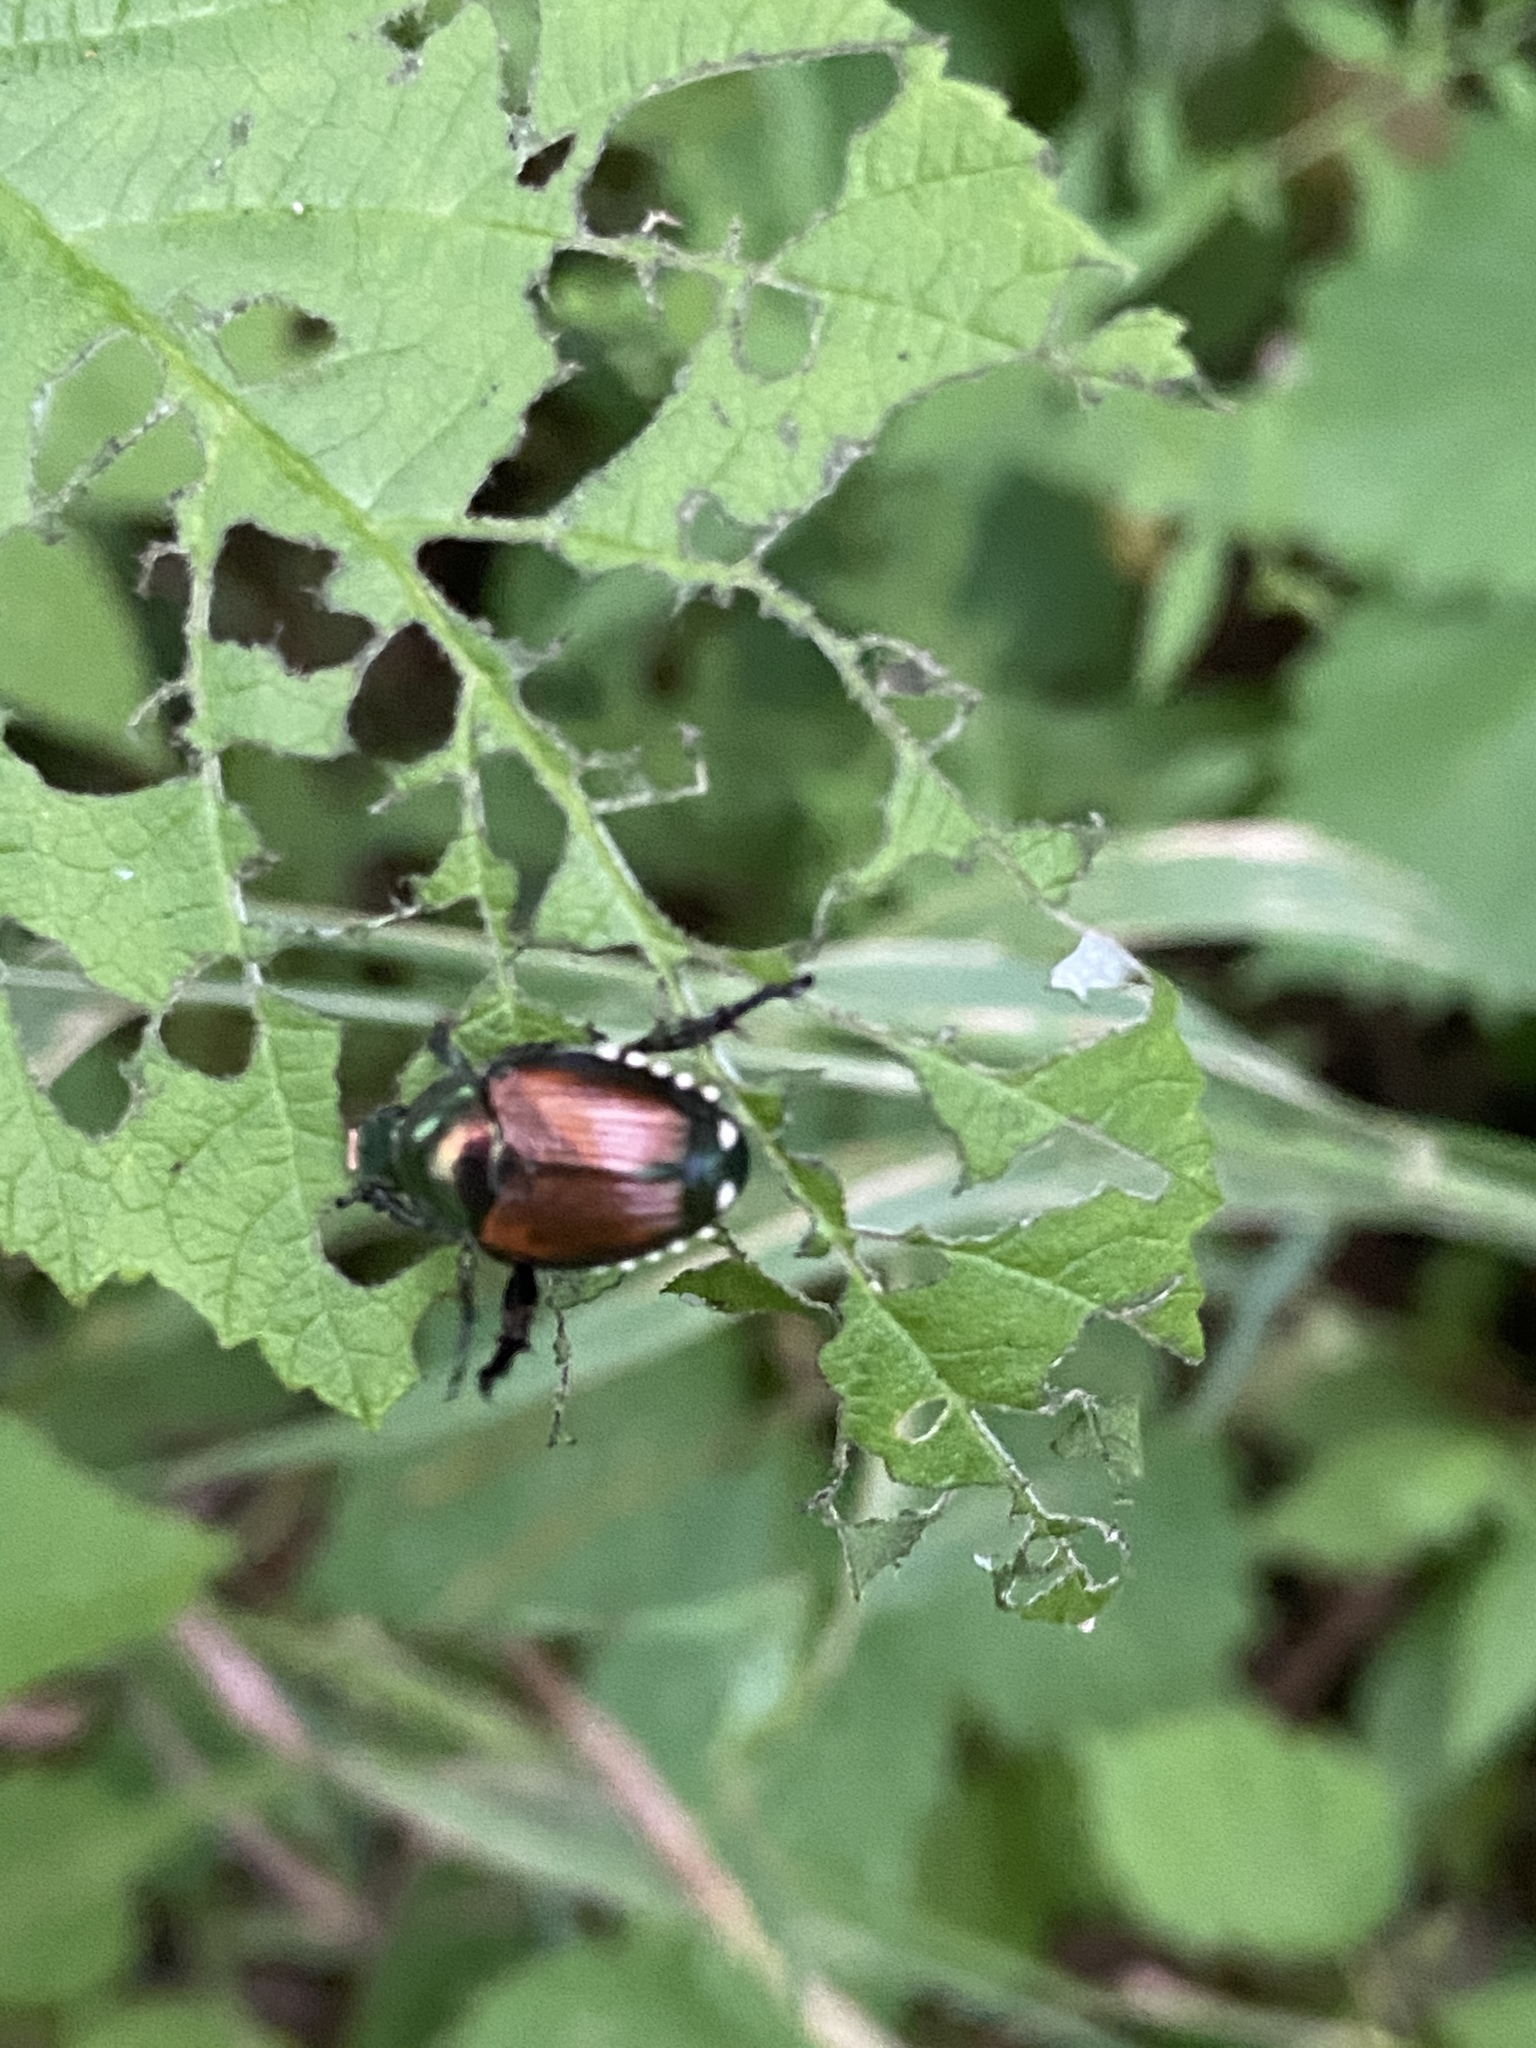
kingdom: Animalia
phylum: Arthropoda
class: Insecta
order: Coleoptera
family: Scarabaeidae
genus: Popillia
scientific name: Popillia japonica
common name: Japanese beetle
